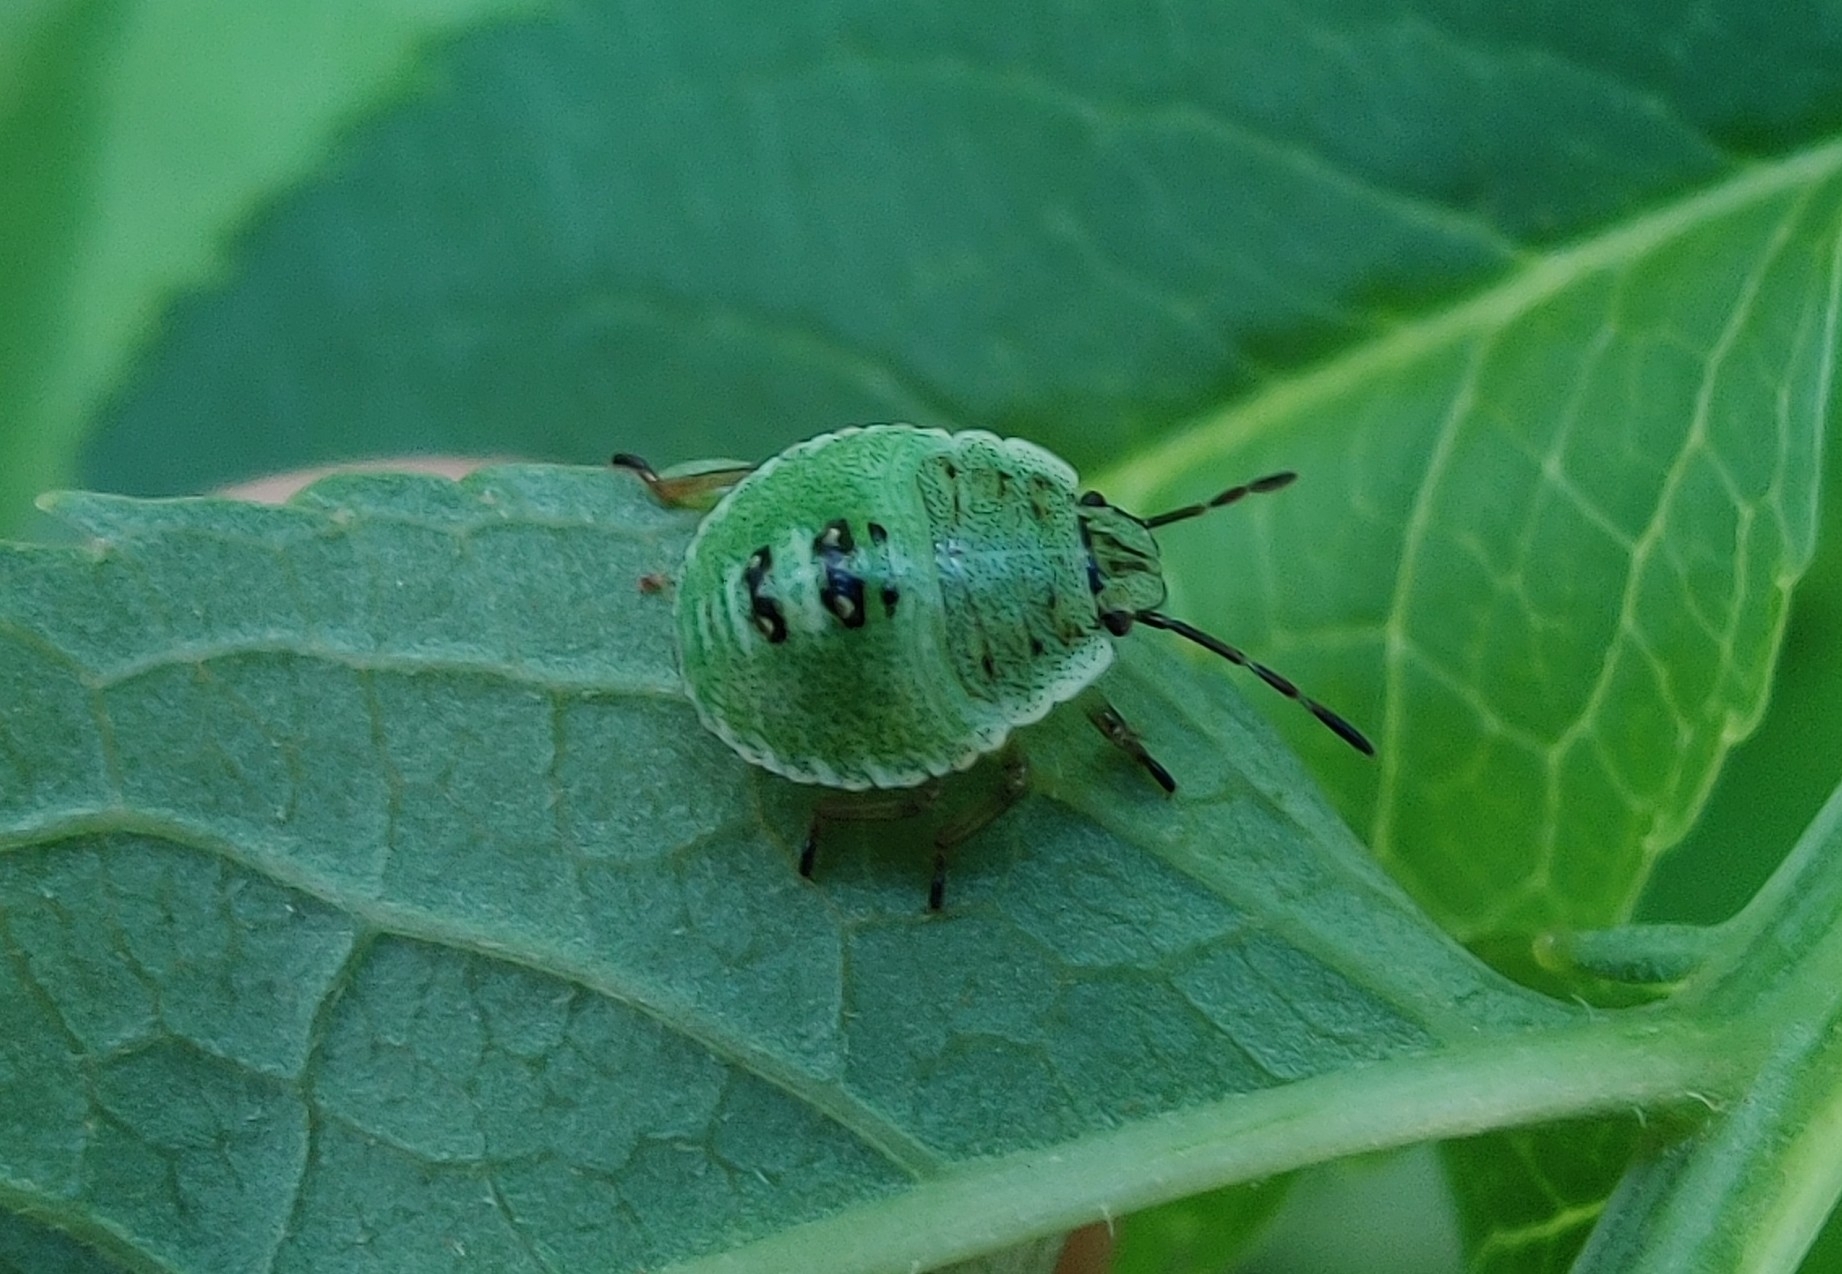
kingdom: Animalia
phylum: Arthropoda
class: Insecta
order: Hemiptera
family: Pentatomidae
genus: Palomena
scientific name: Palomena prasina
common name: Green shieldbug
